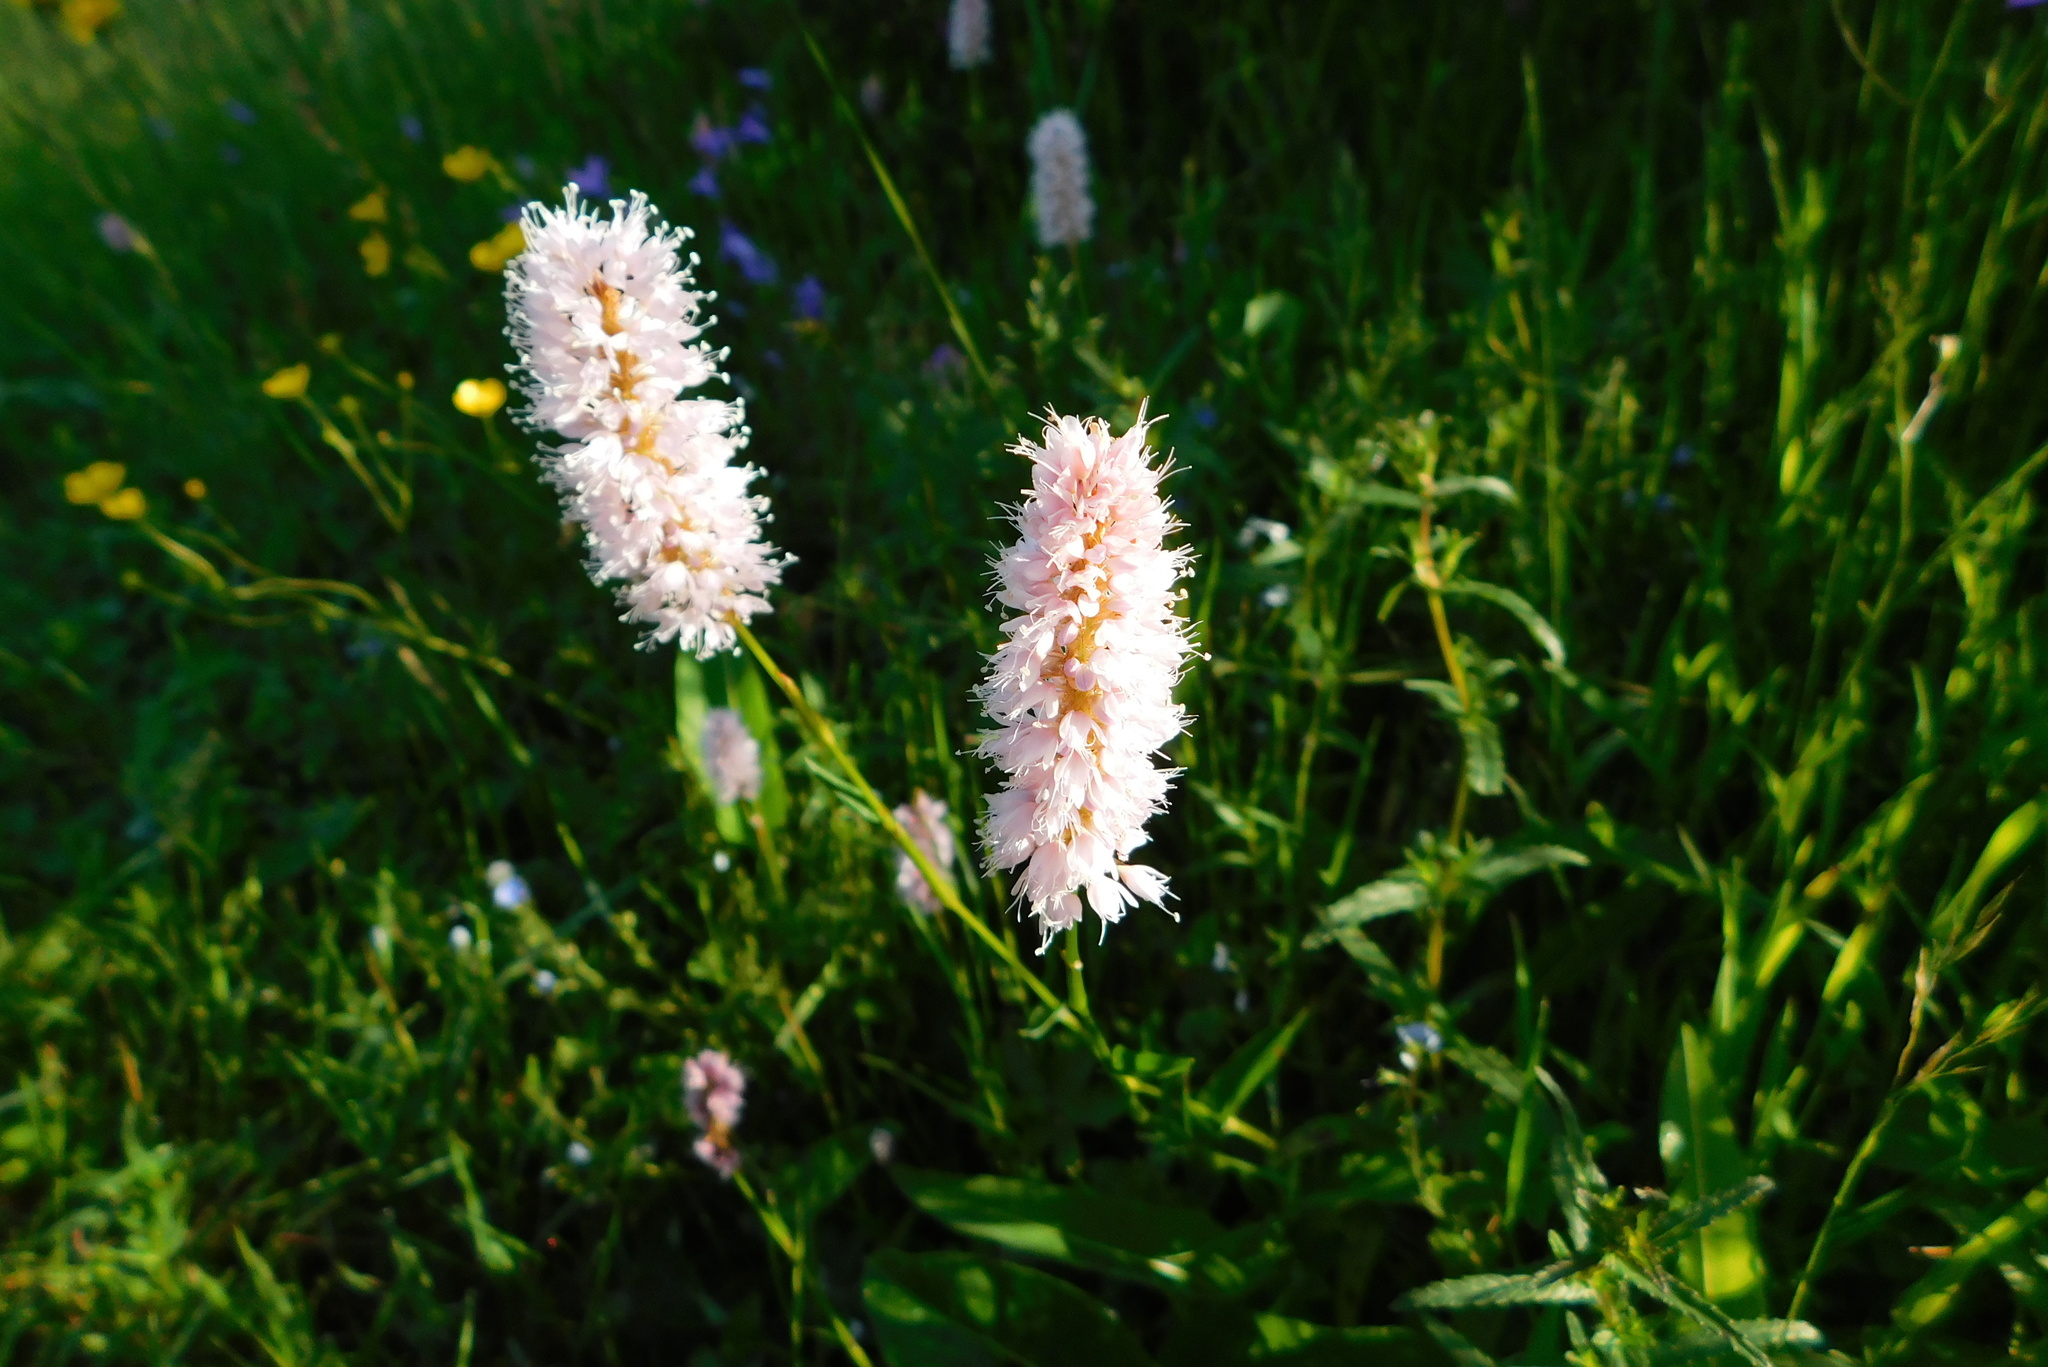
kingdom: Plantae
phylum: Tracheophyta
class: Magnoliopsida
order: Caryophyllales
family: Polygonaceae
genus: Bistorta
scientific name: Bistorta officinalis
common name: Common bistort
